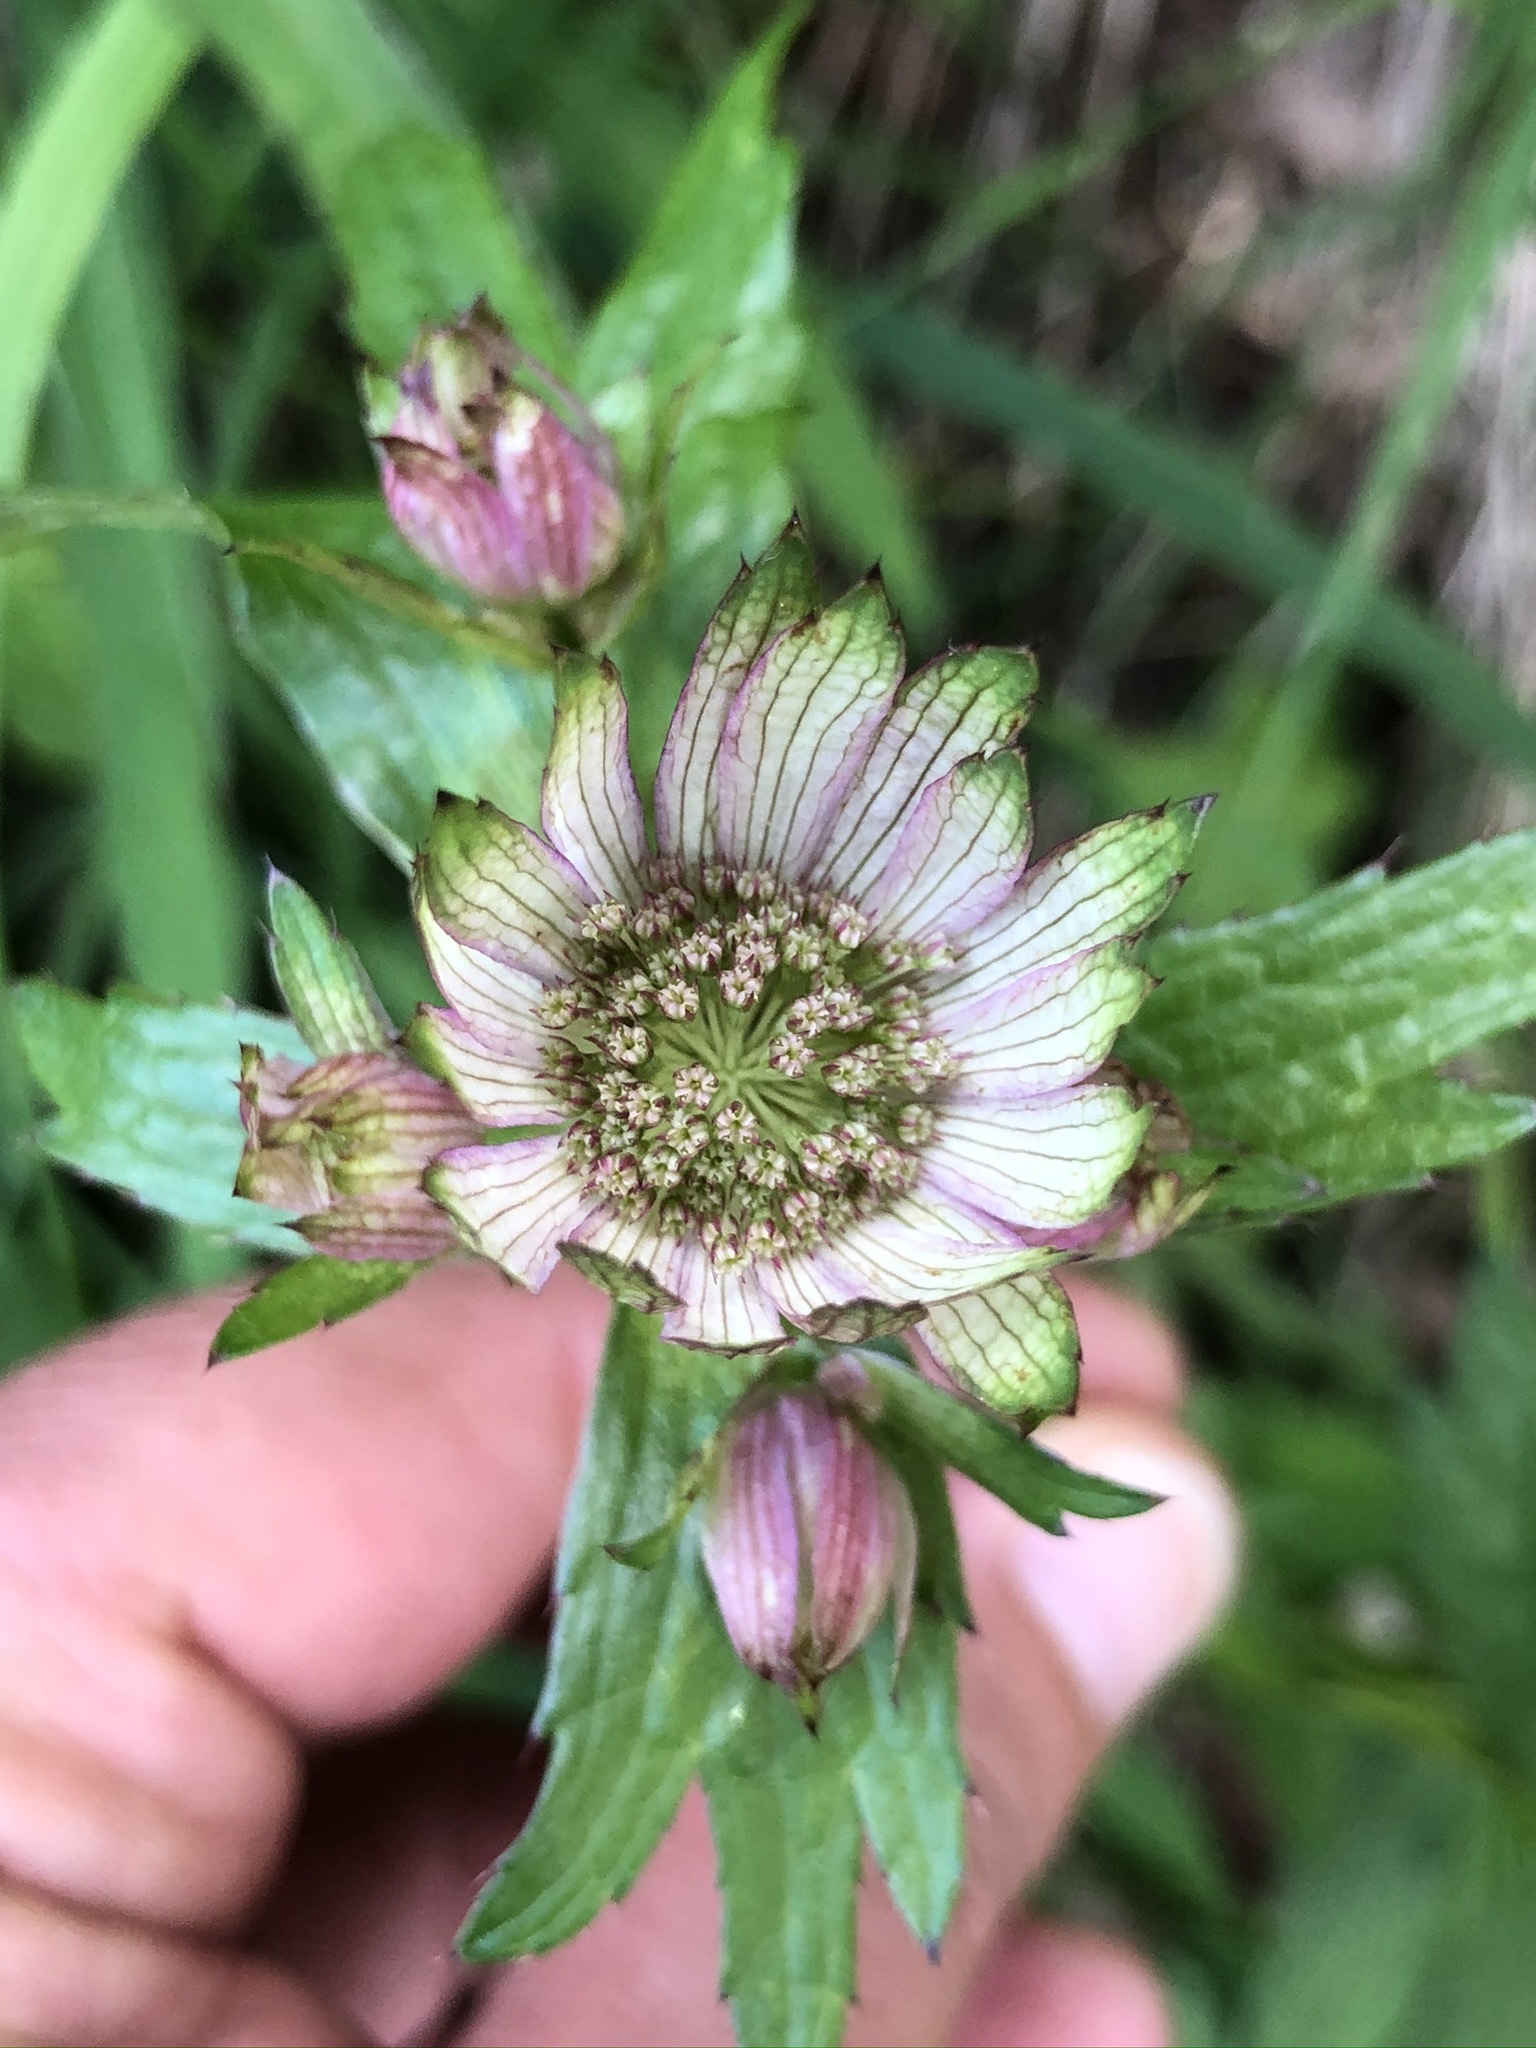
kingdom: Plantae
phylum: Tracheophyta
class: Magnoliopsida
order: Apiales
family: Apiaceae
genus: Astrantia
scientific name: Astrantia major
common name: Greater masterwort
